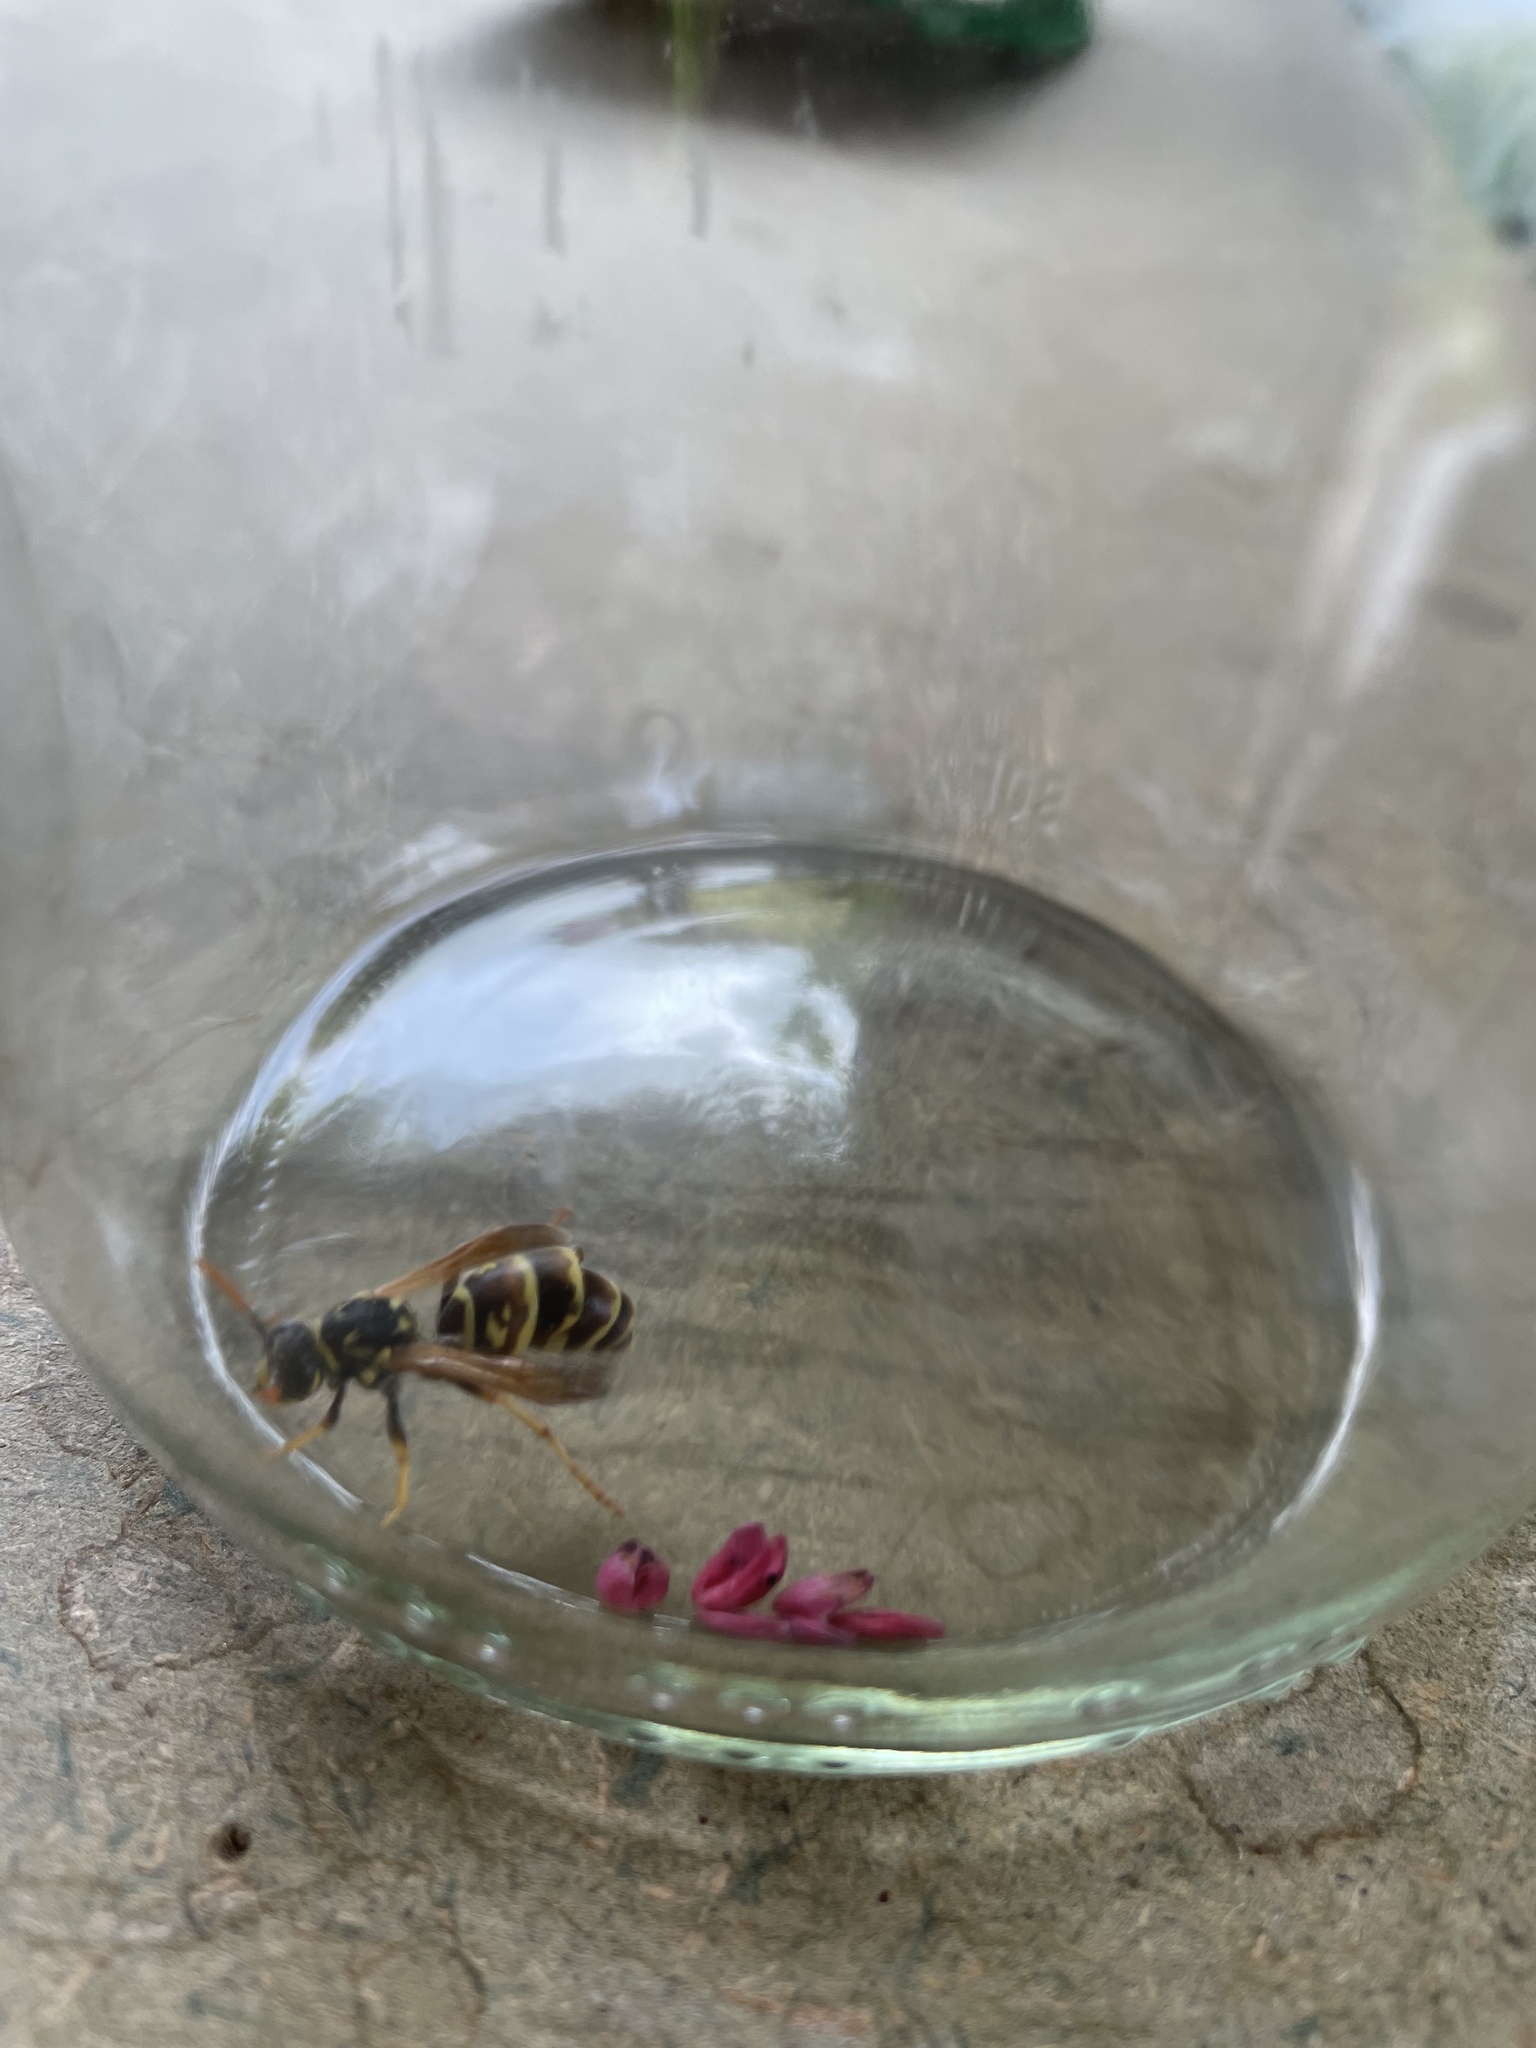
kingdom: Animalia
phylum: Arthropoda
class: Insecta
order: Hymenoptera
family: Eumenidae
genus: Polistes
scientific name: Polistes dominula
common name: Paper wasp
